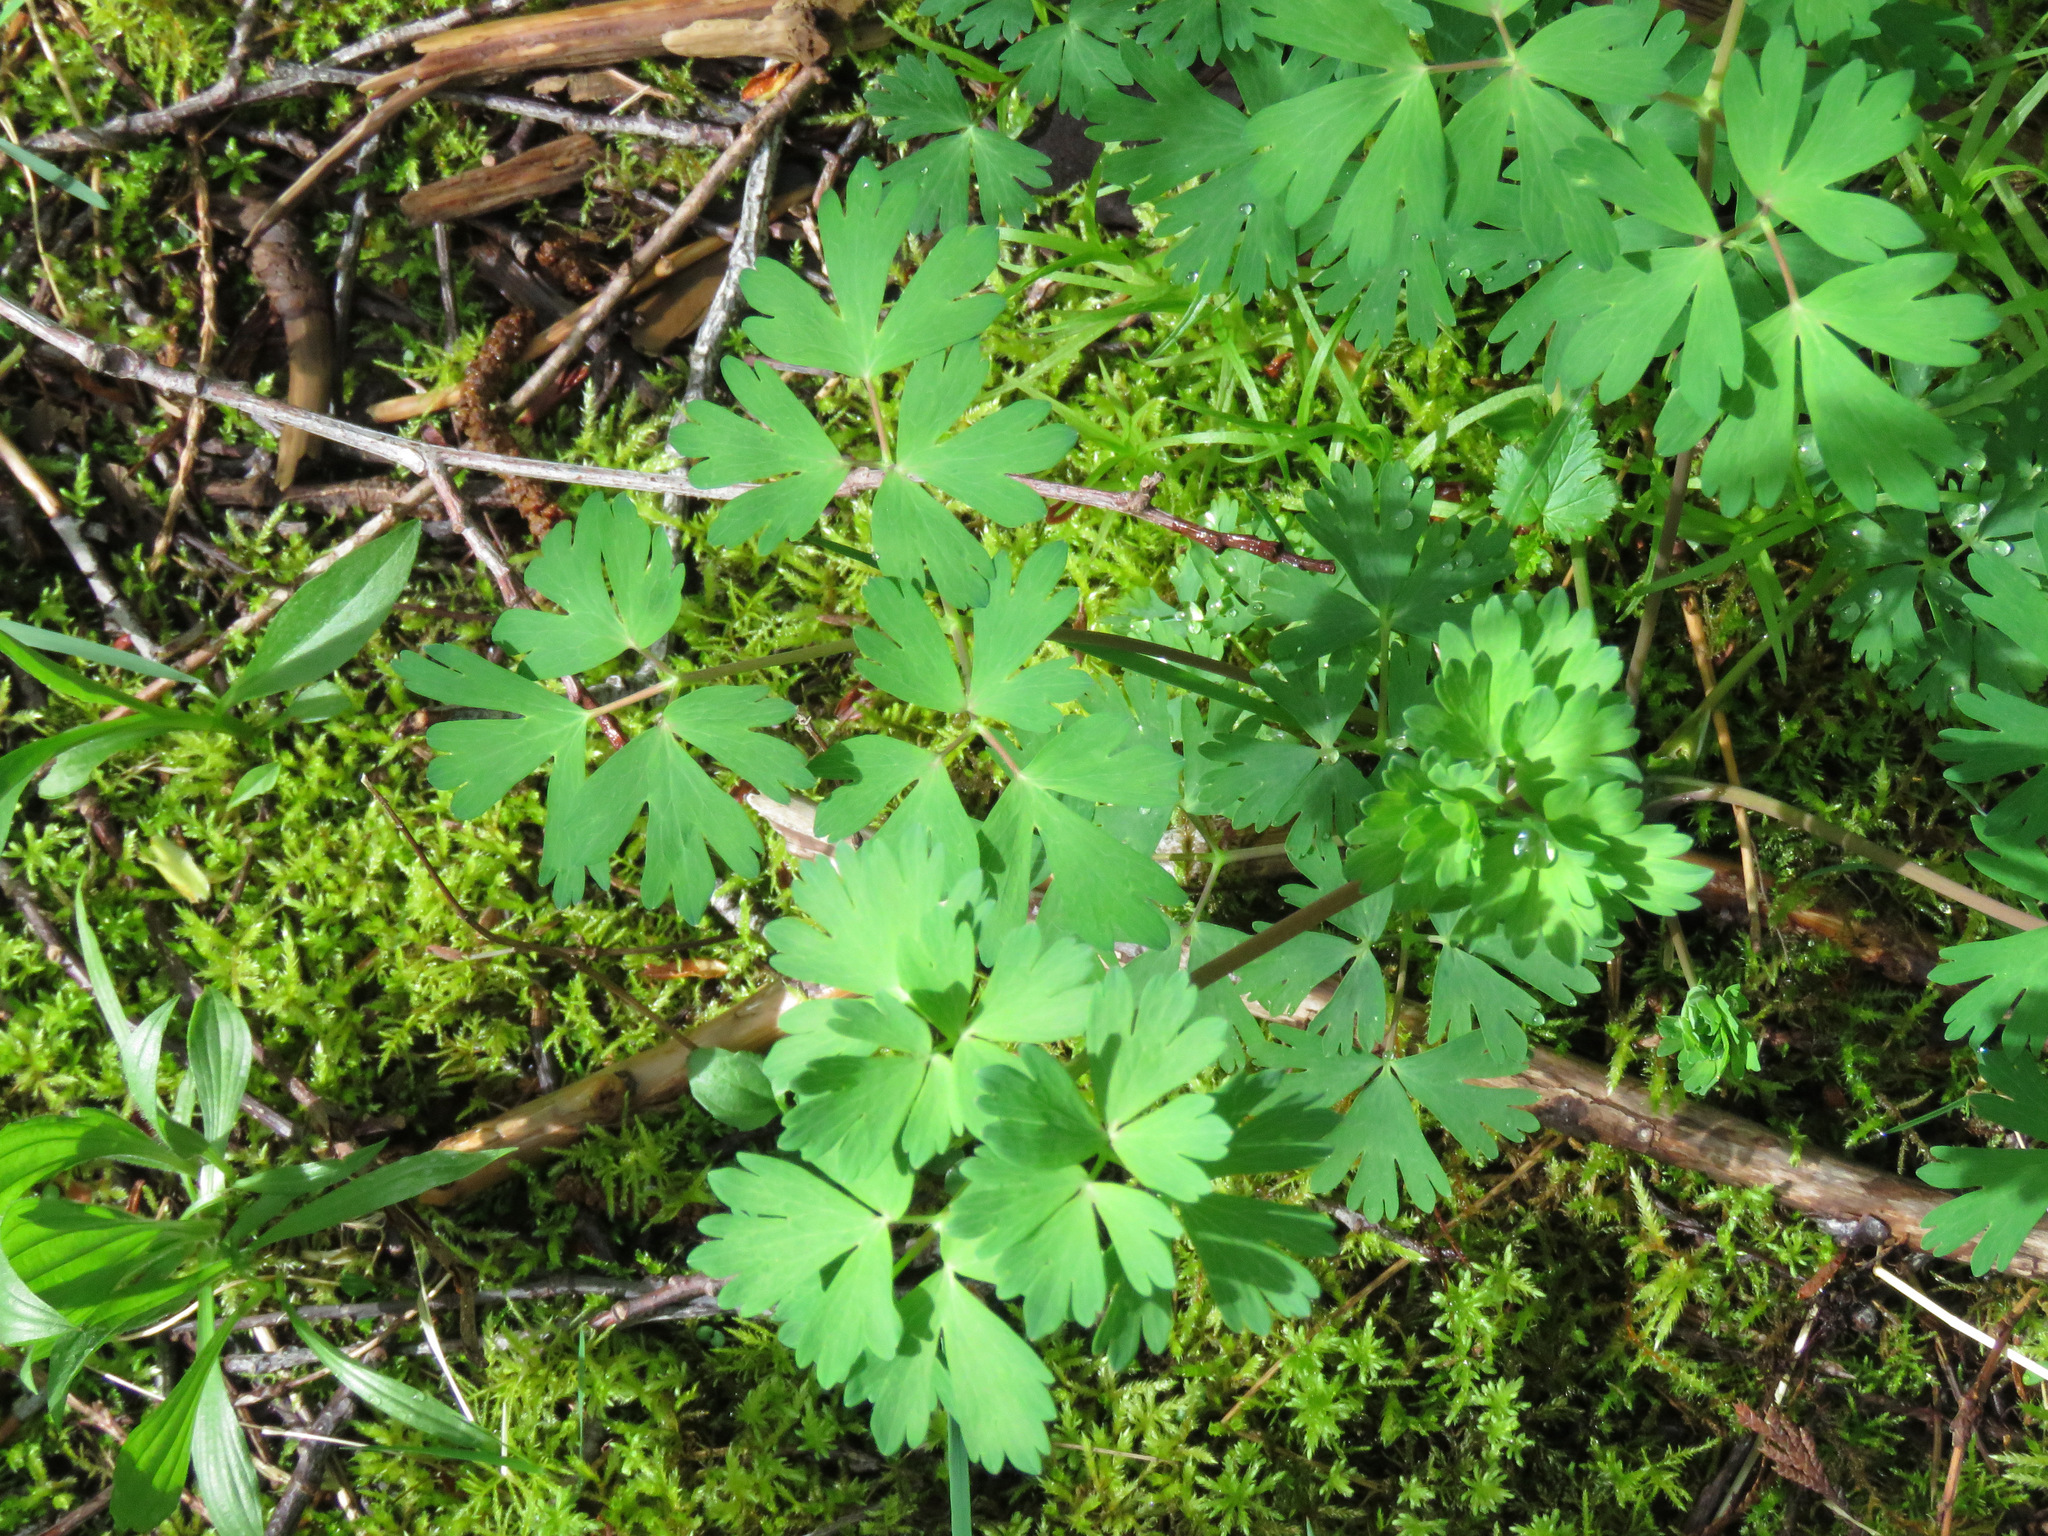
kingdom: Plantae
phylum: Tracheophyta
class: Magnoliopsida
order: Ranunculales
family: Ranunculaceae
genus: Aquilegia
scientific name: Aquilegia formosa
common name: Sitka columbine
